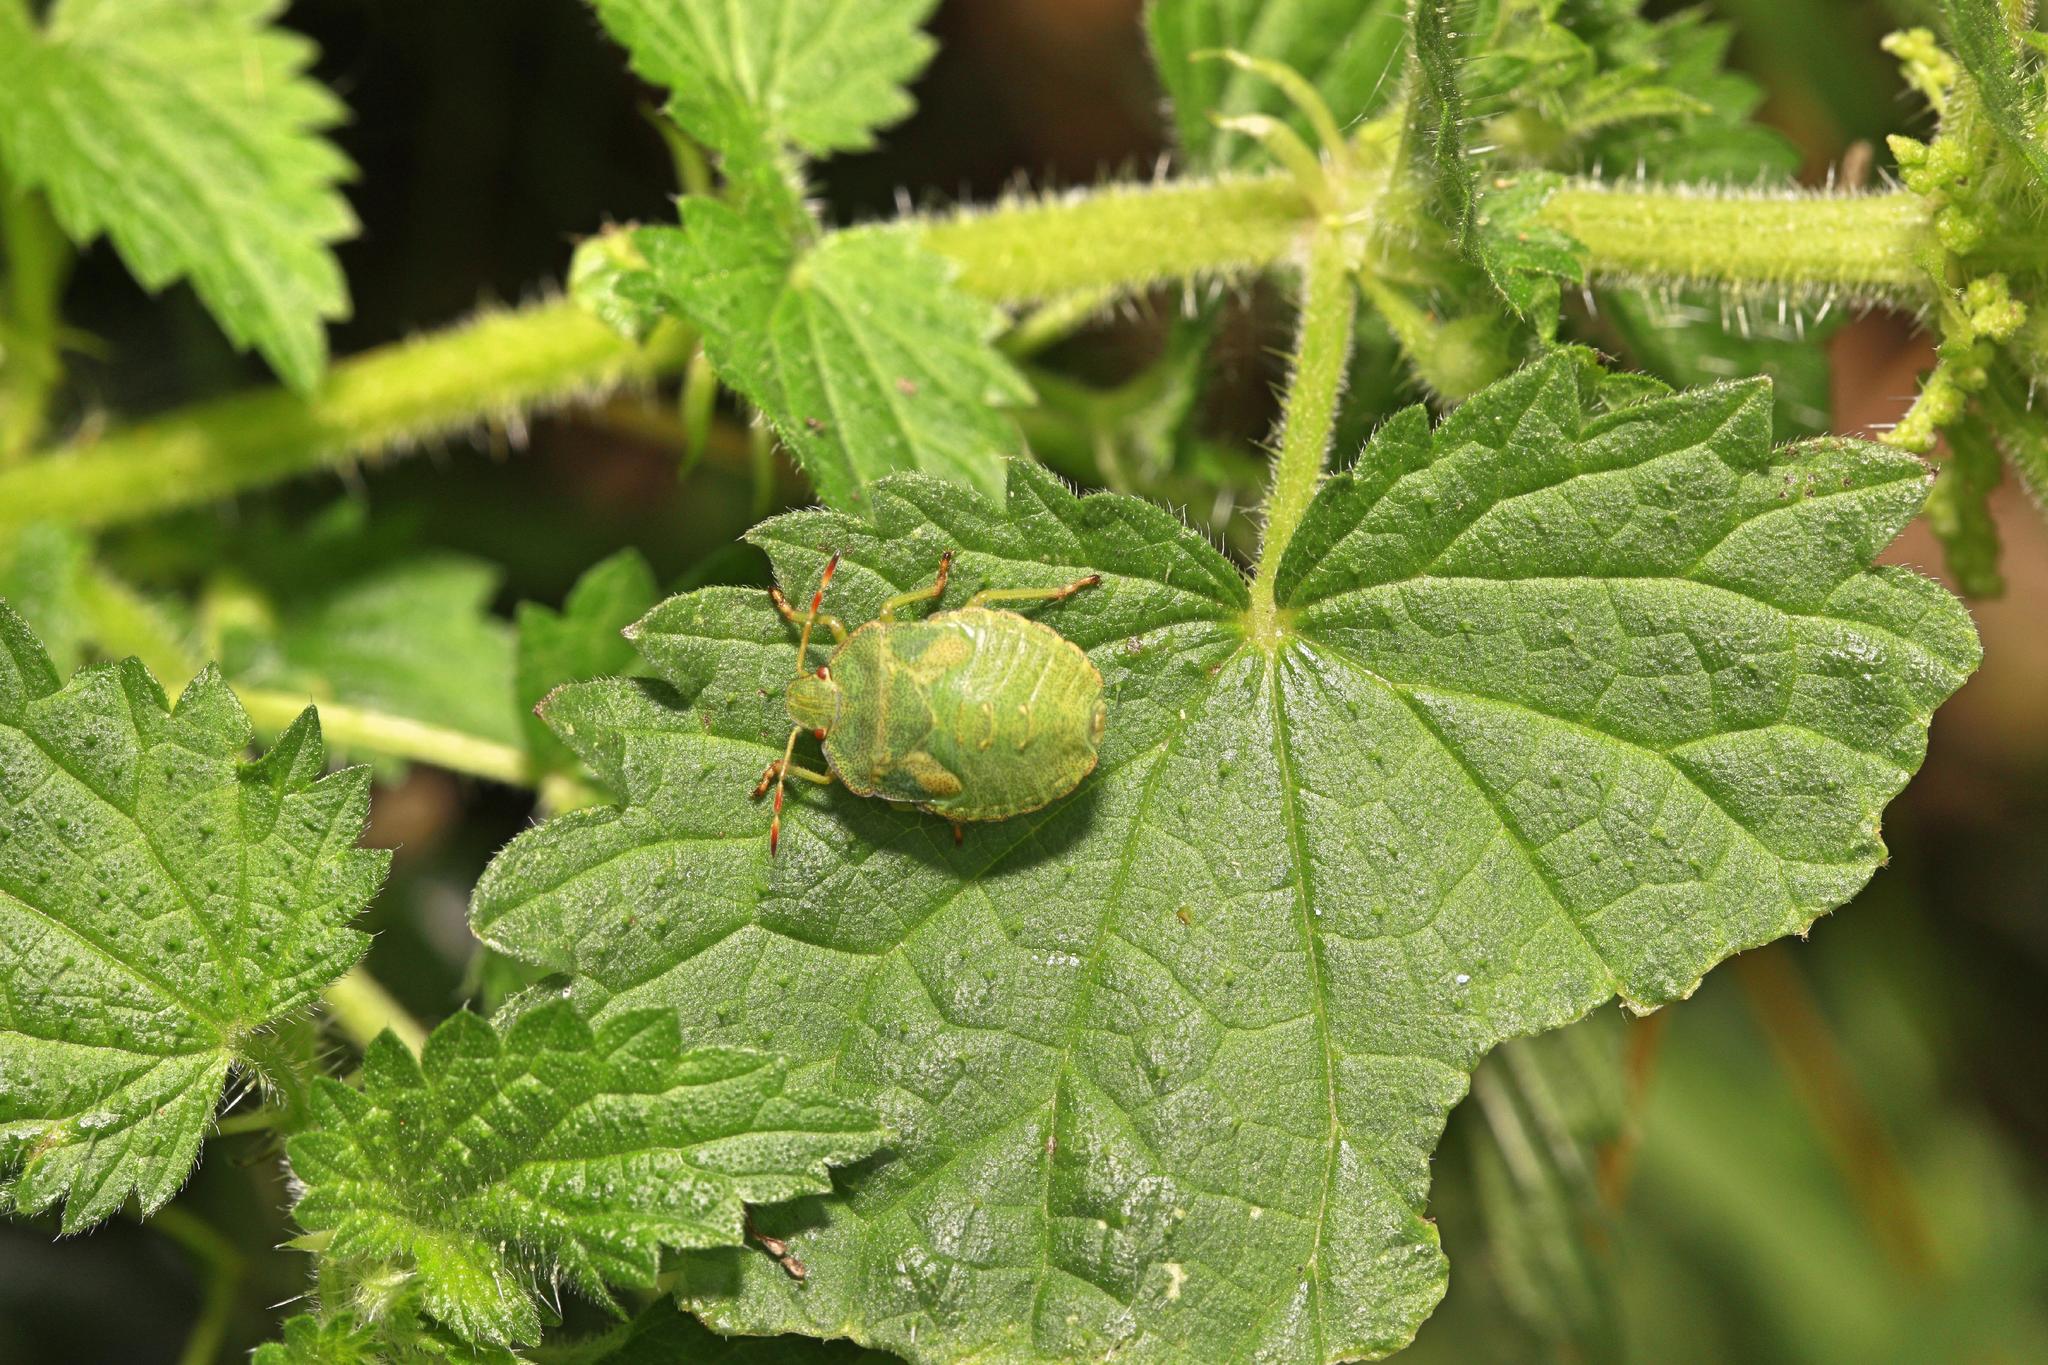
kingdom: Animalia
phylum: Arthropoda
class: Insecta
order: Hemiptera
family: Pentatomidae
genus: Palomena
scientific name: Palomena prasina
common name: Green shieldbug
